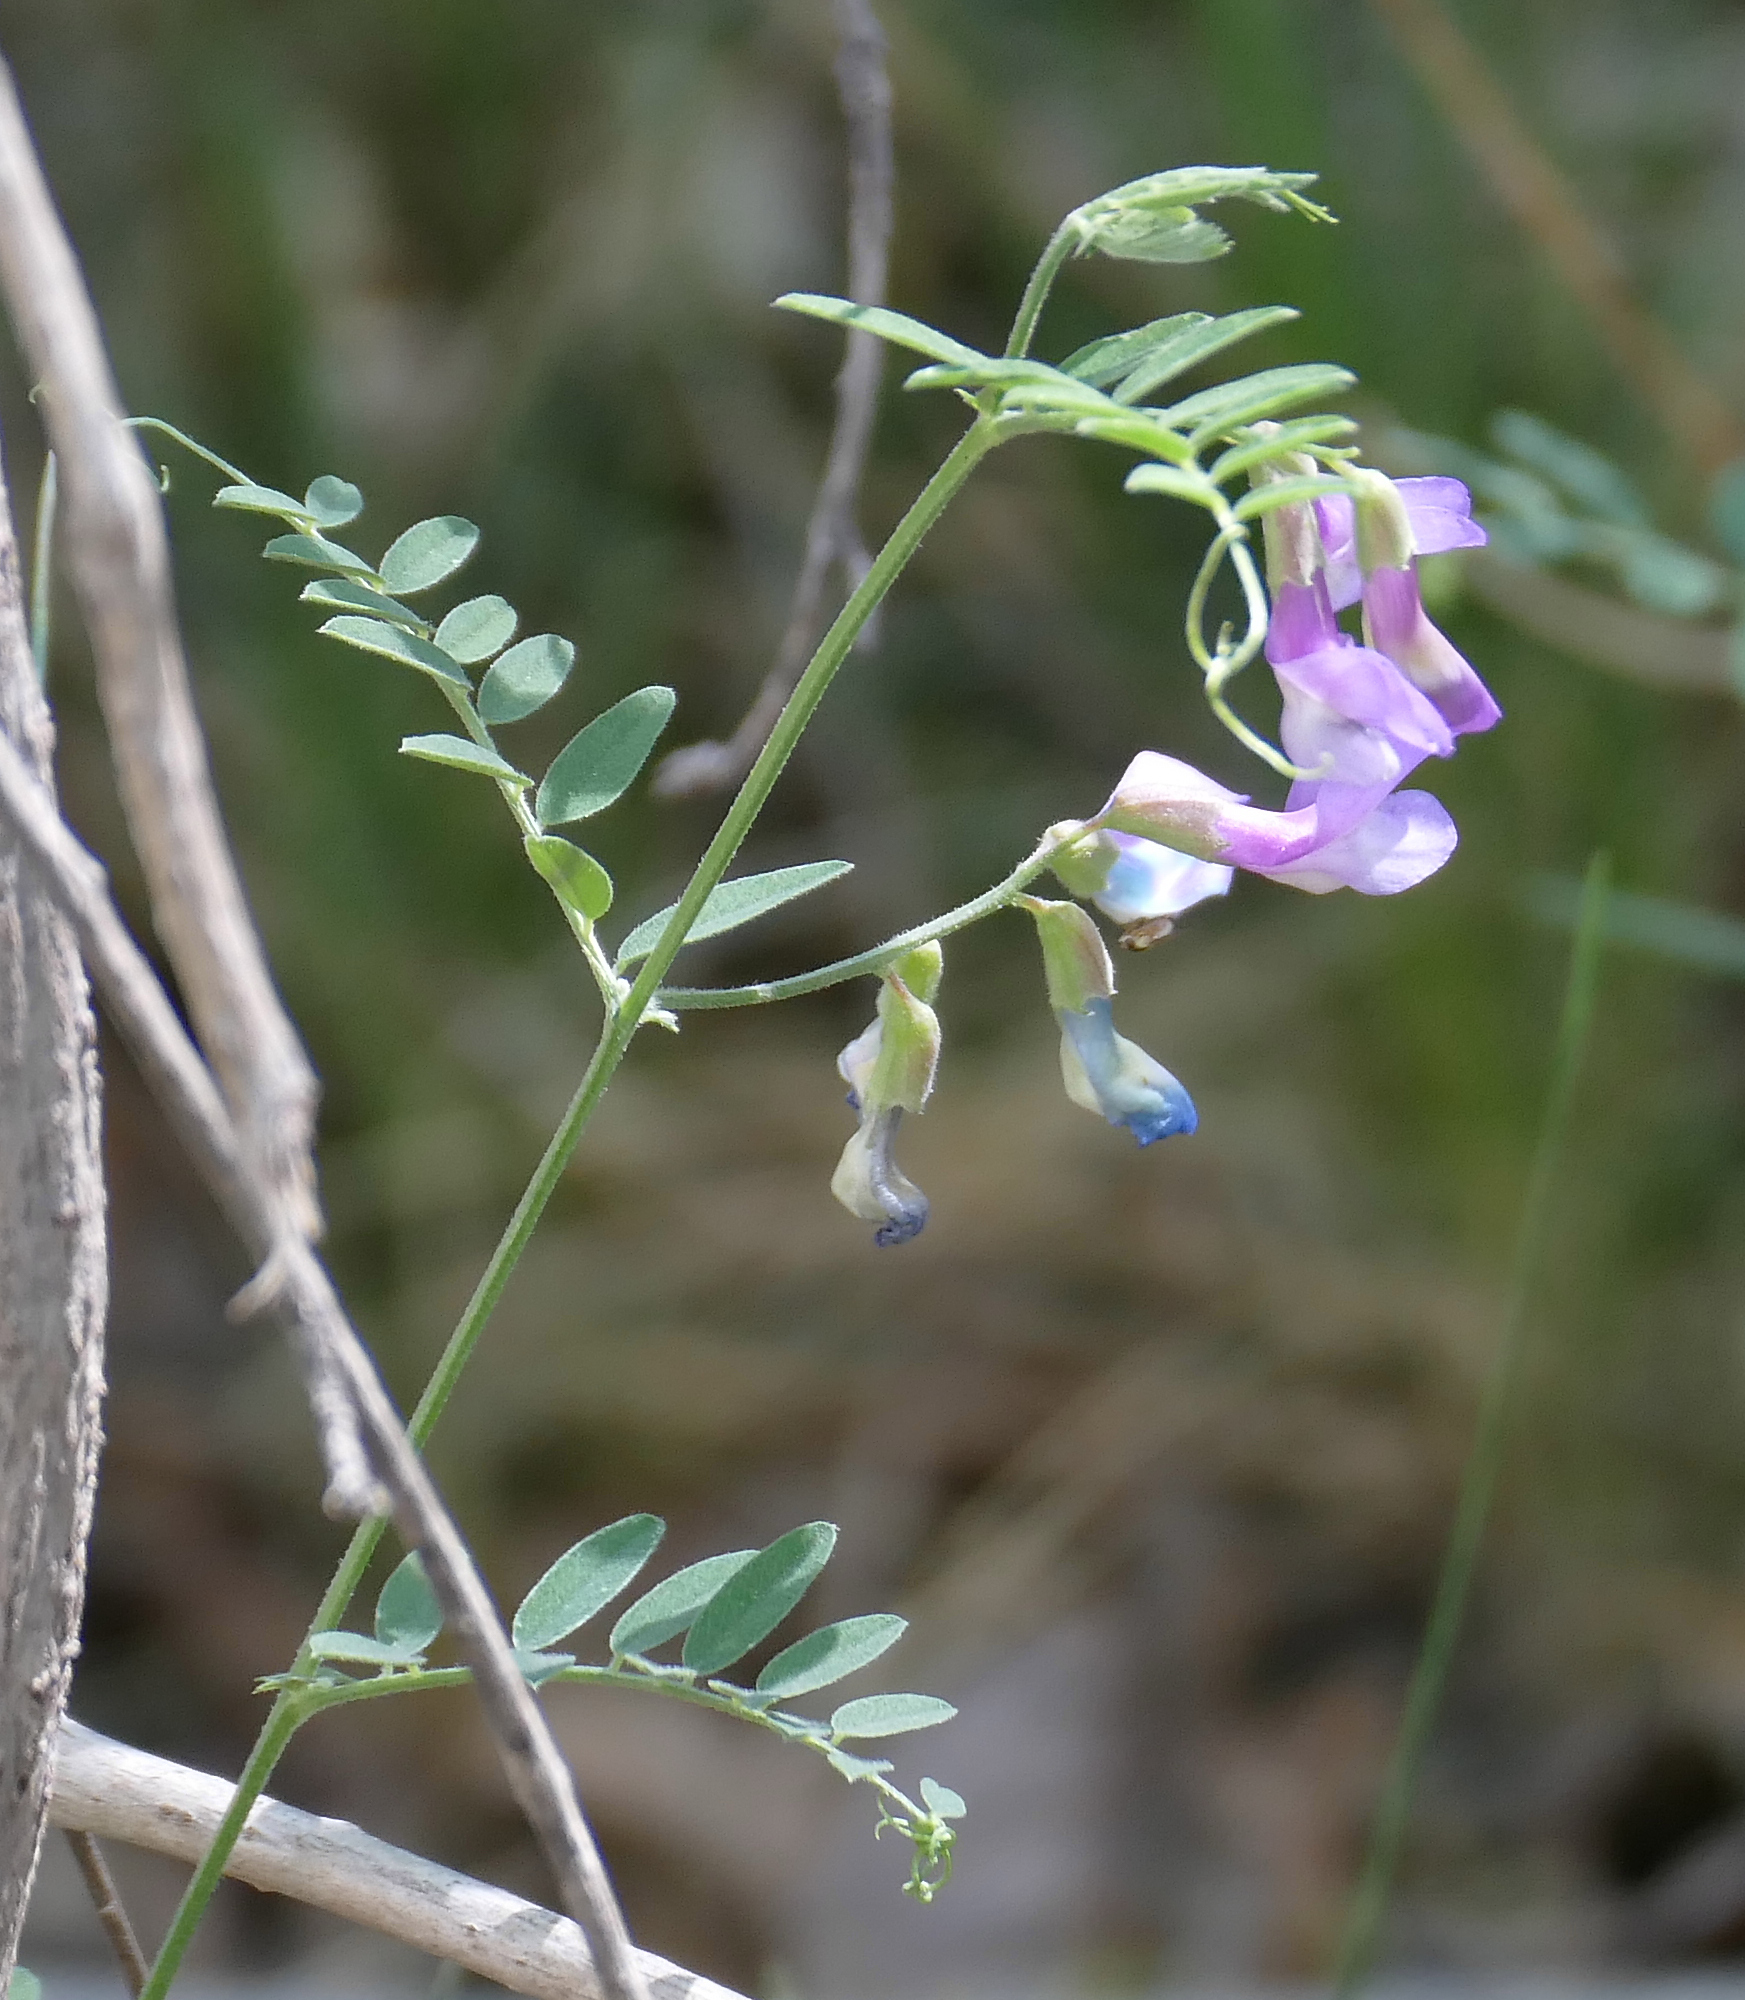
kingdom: Plantae
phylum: Tracheophyta
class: Magnoliopsida
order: Fabales
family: Fabaceae
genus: Vicia
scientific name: Vicia americana
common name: American vetch
